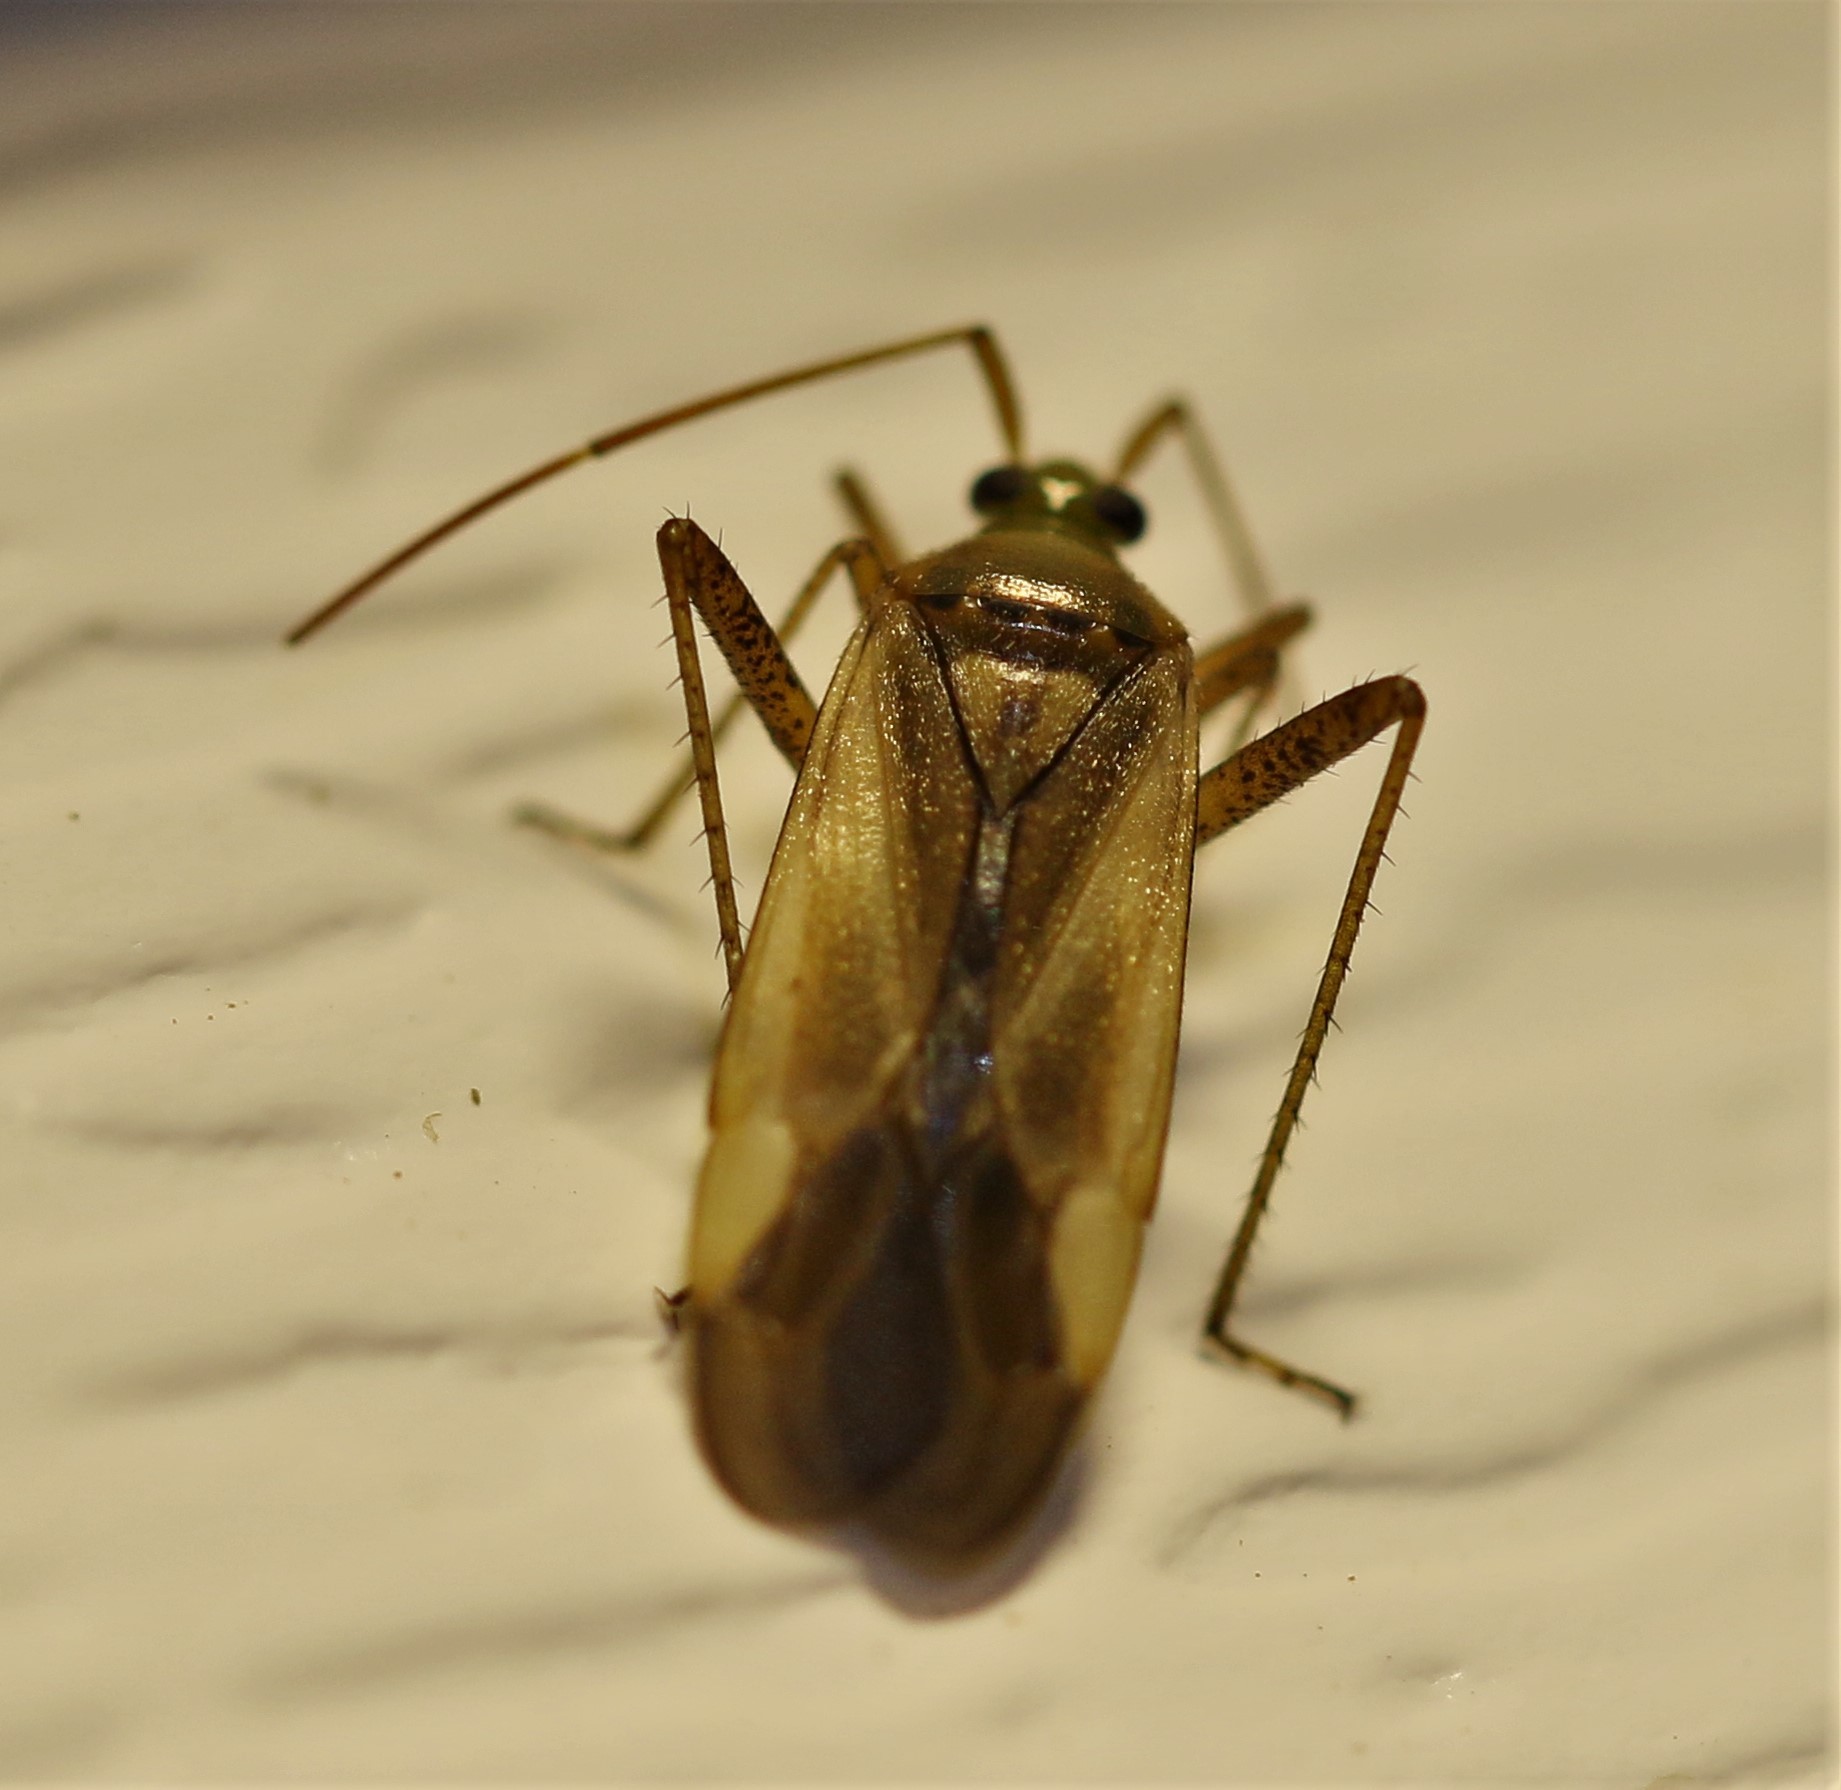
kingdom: Animalia
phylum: Arthropoda
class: Insecta
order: Hemiptera
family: Miridae
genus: Adelphocoris
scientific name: Adelphocoris lineolatus
